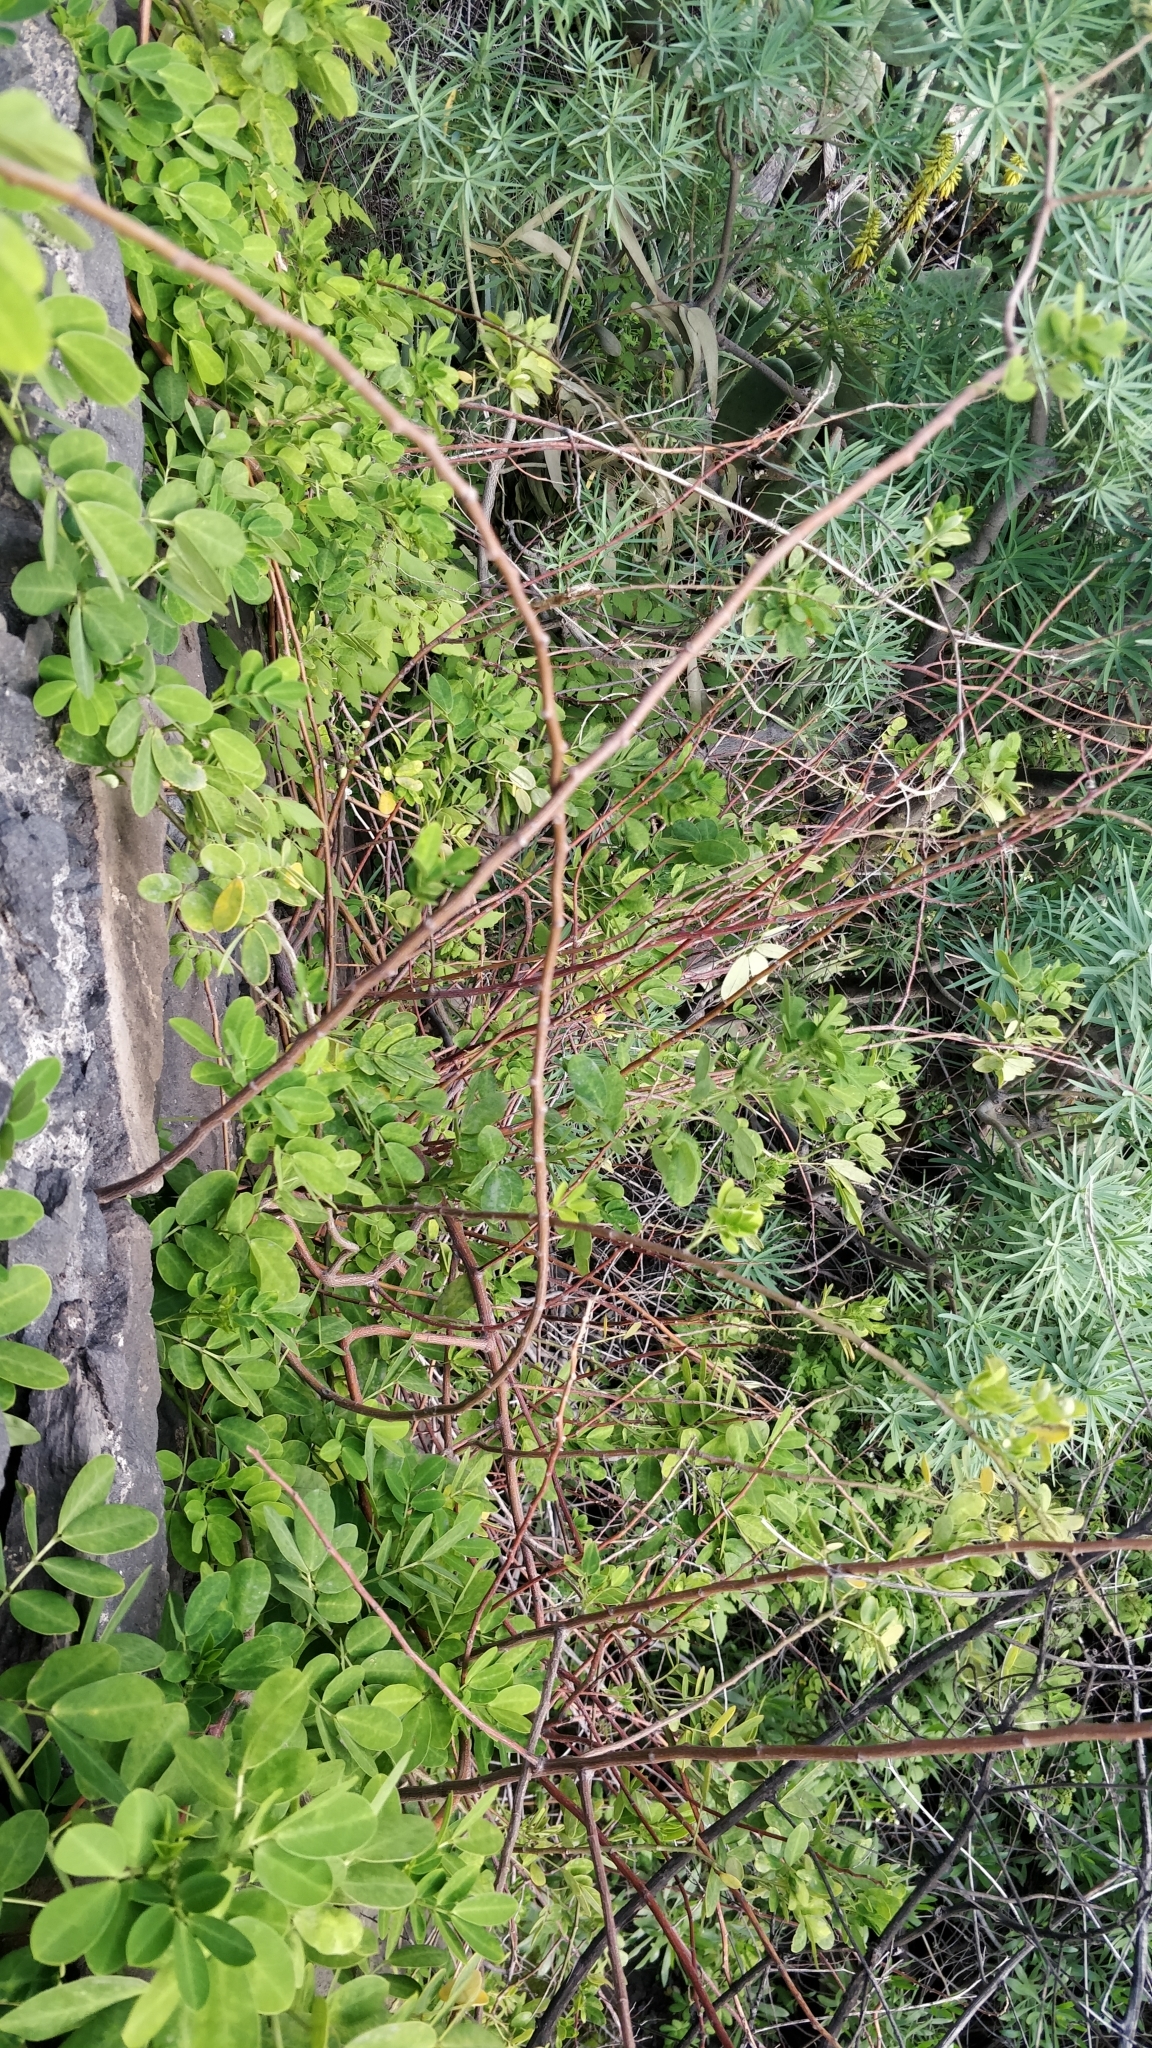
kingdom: Plantae
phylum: Tracheophyta
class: Magnoliopsida
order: Fabales
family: Fabaceae
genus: Senna
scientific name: Senna bicapsularis
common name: Christmasbush
